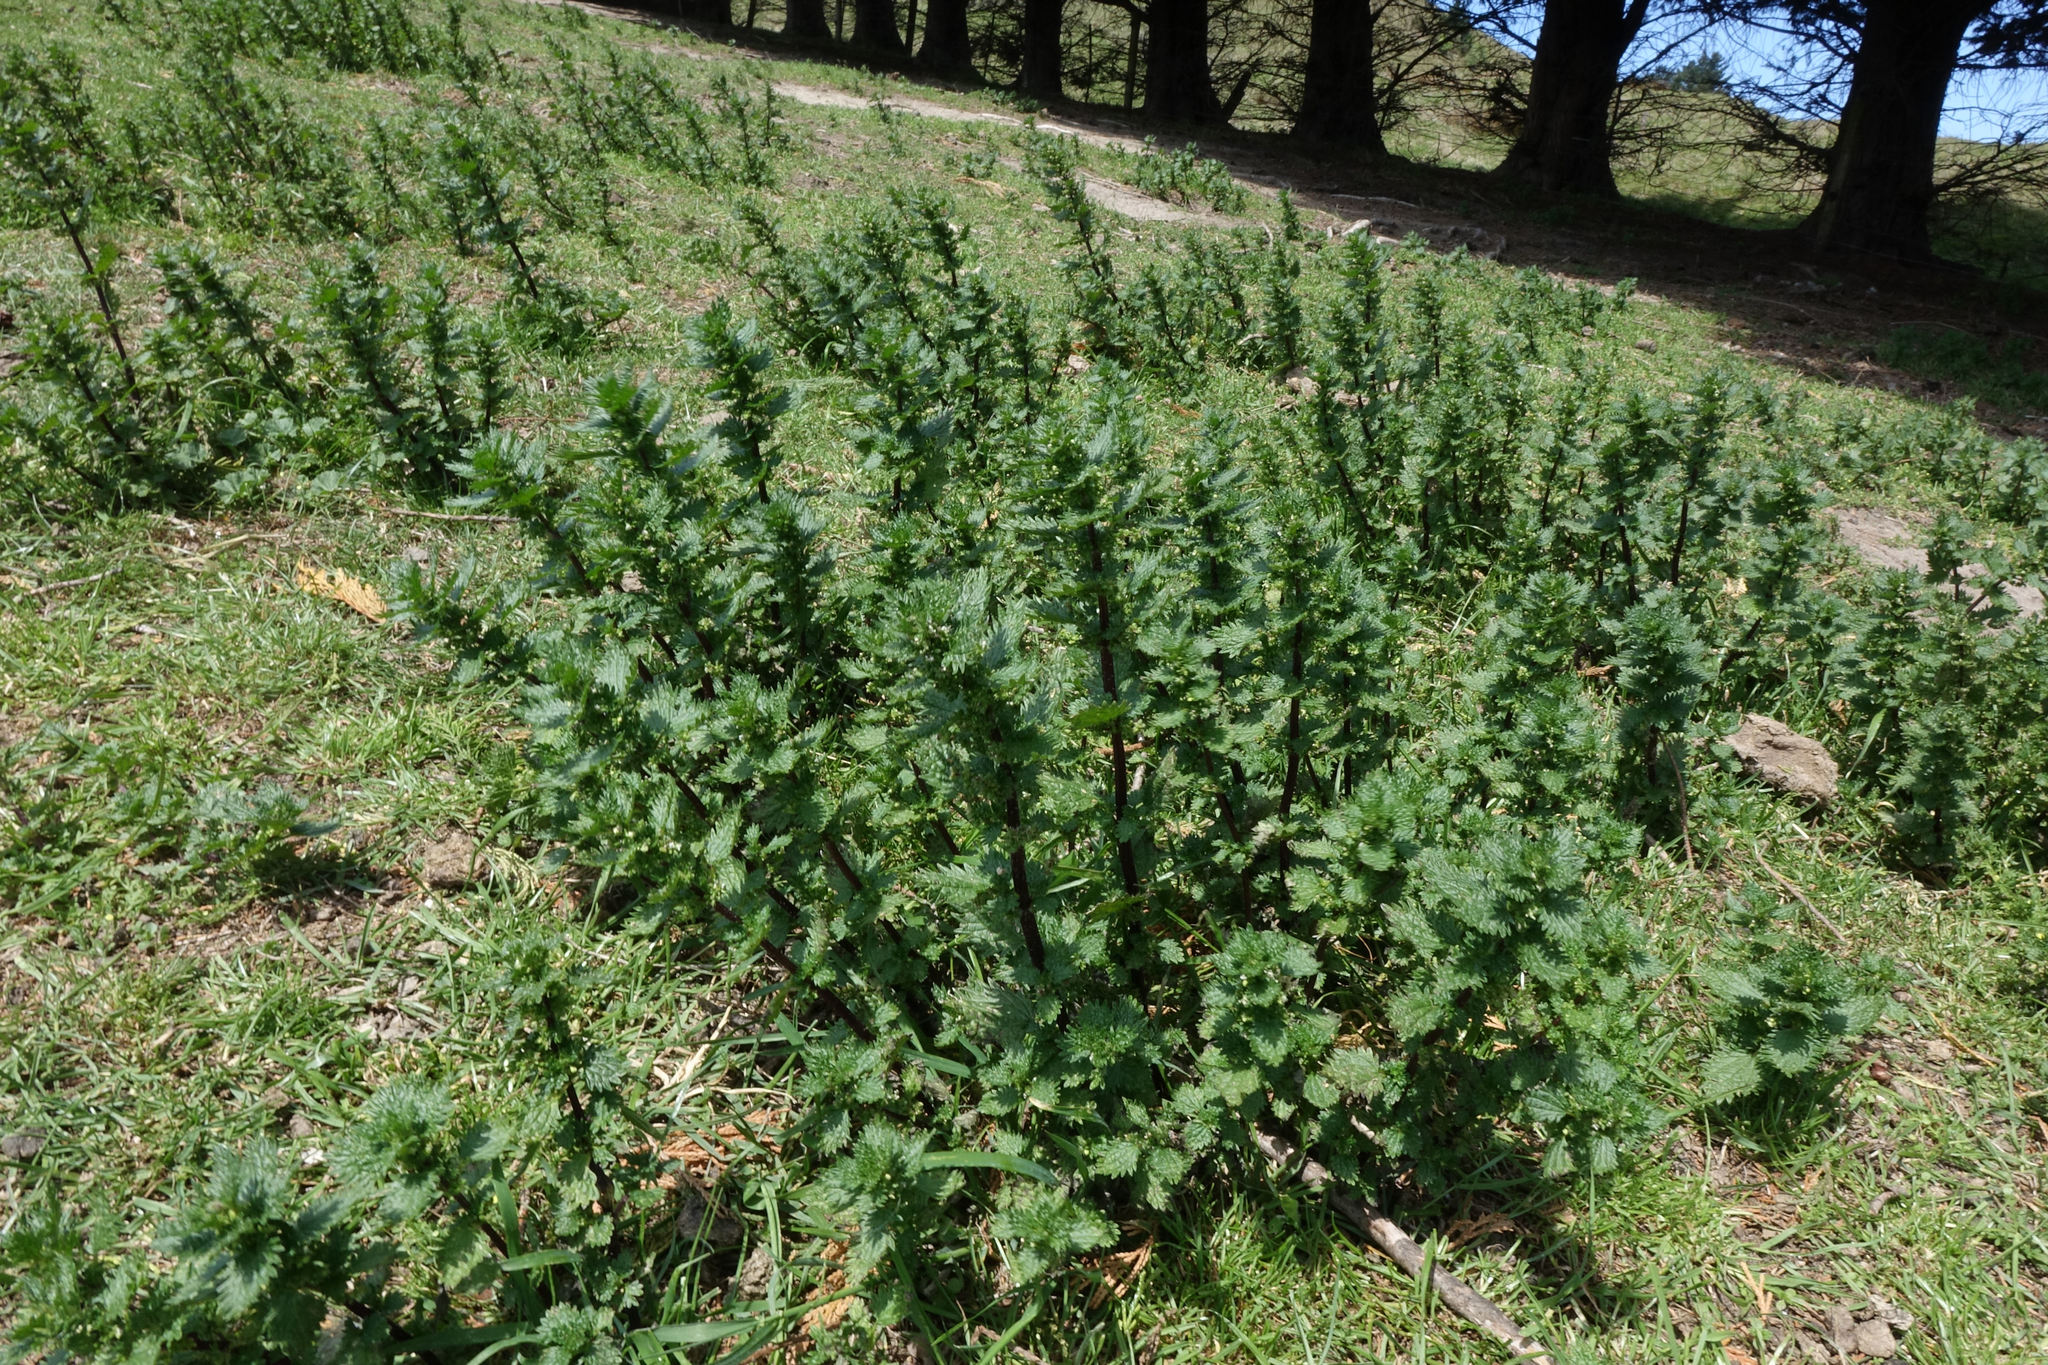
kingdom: Plantae
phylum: Tracheophyta
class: Magnoliopsida
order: Rosales
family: Urticaceae
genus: Urtica
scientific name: Urtica urens
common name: Dwarf nettle
